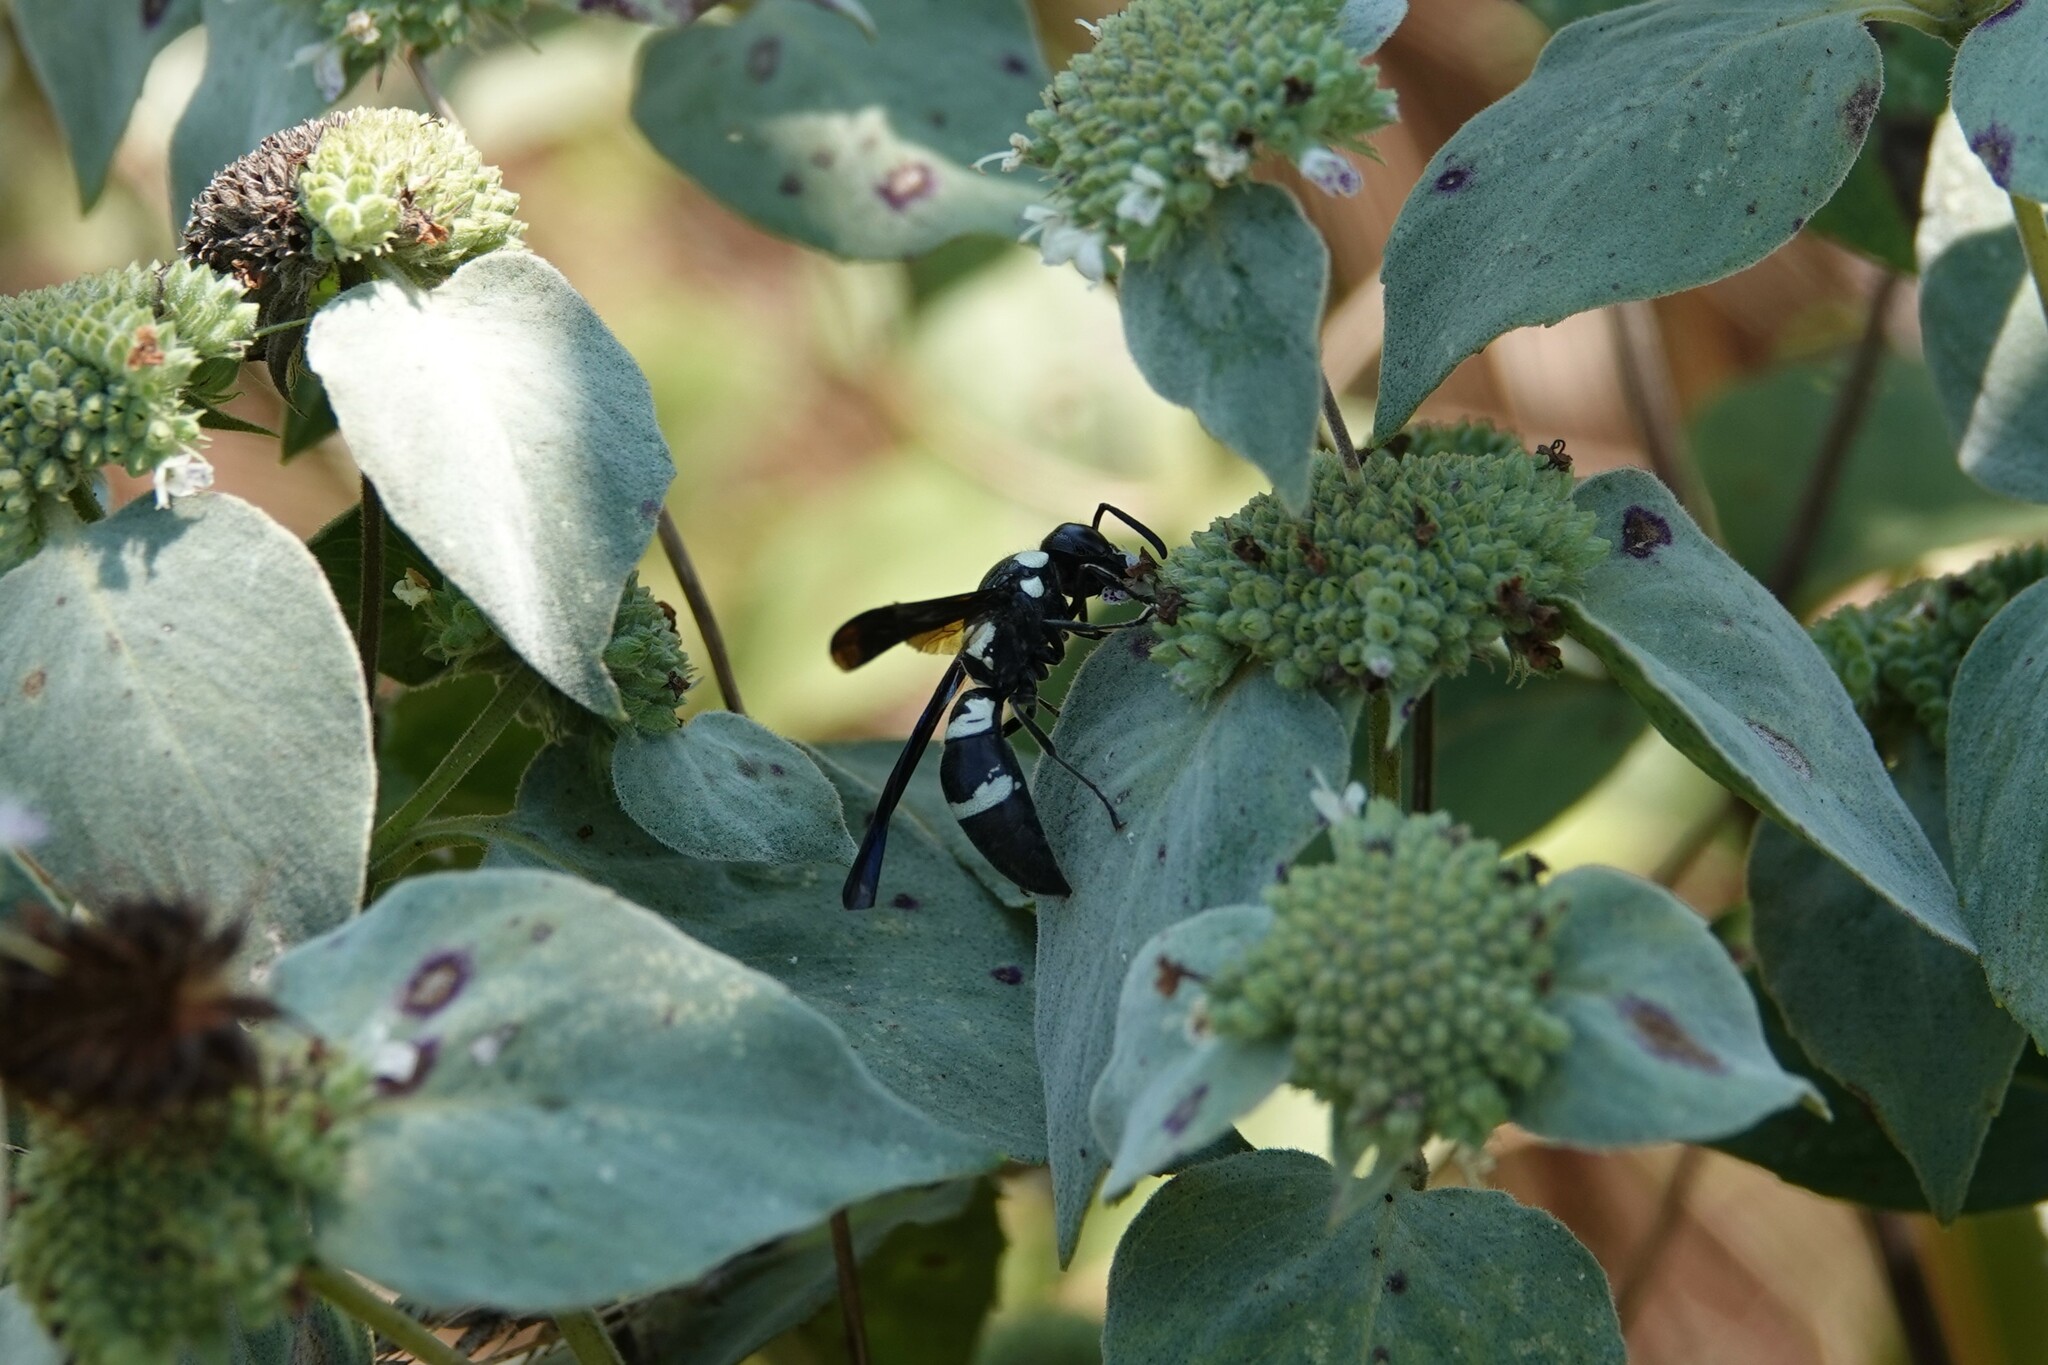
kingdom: Animalia
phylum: Arthropoda
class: Insecta
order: Hymenoptera
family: Eumenidae
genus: Pseudodynerus
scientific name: Pseudodynerus quadrisectus
